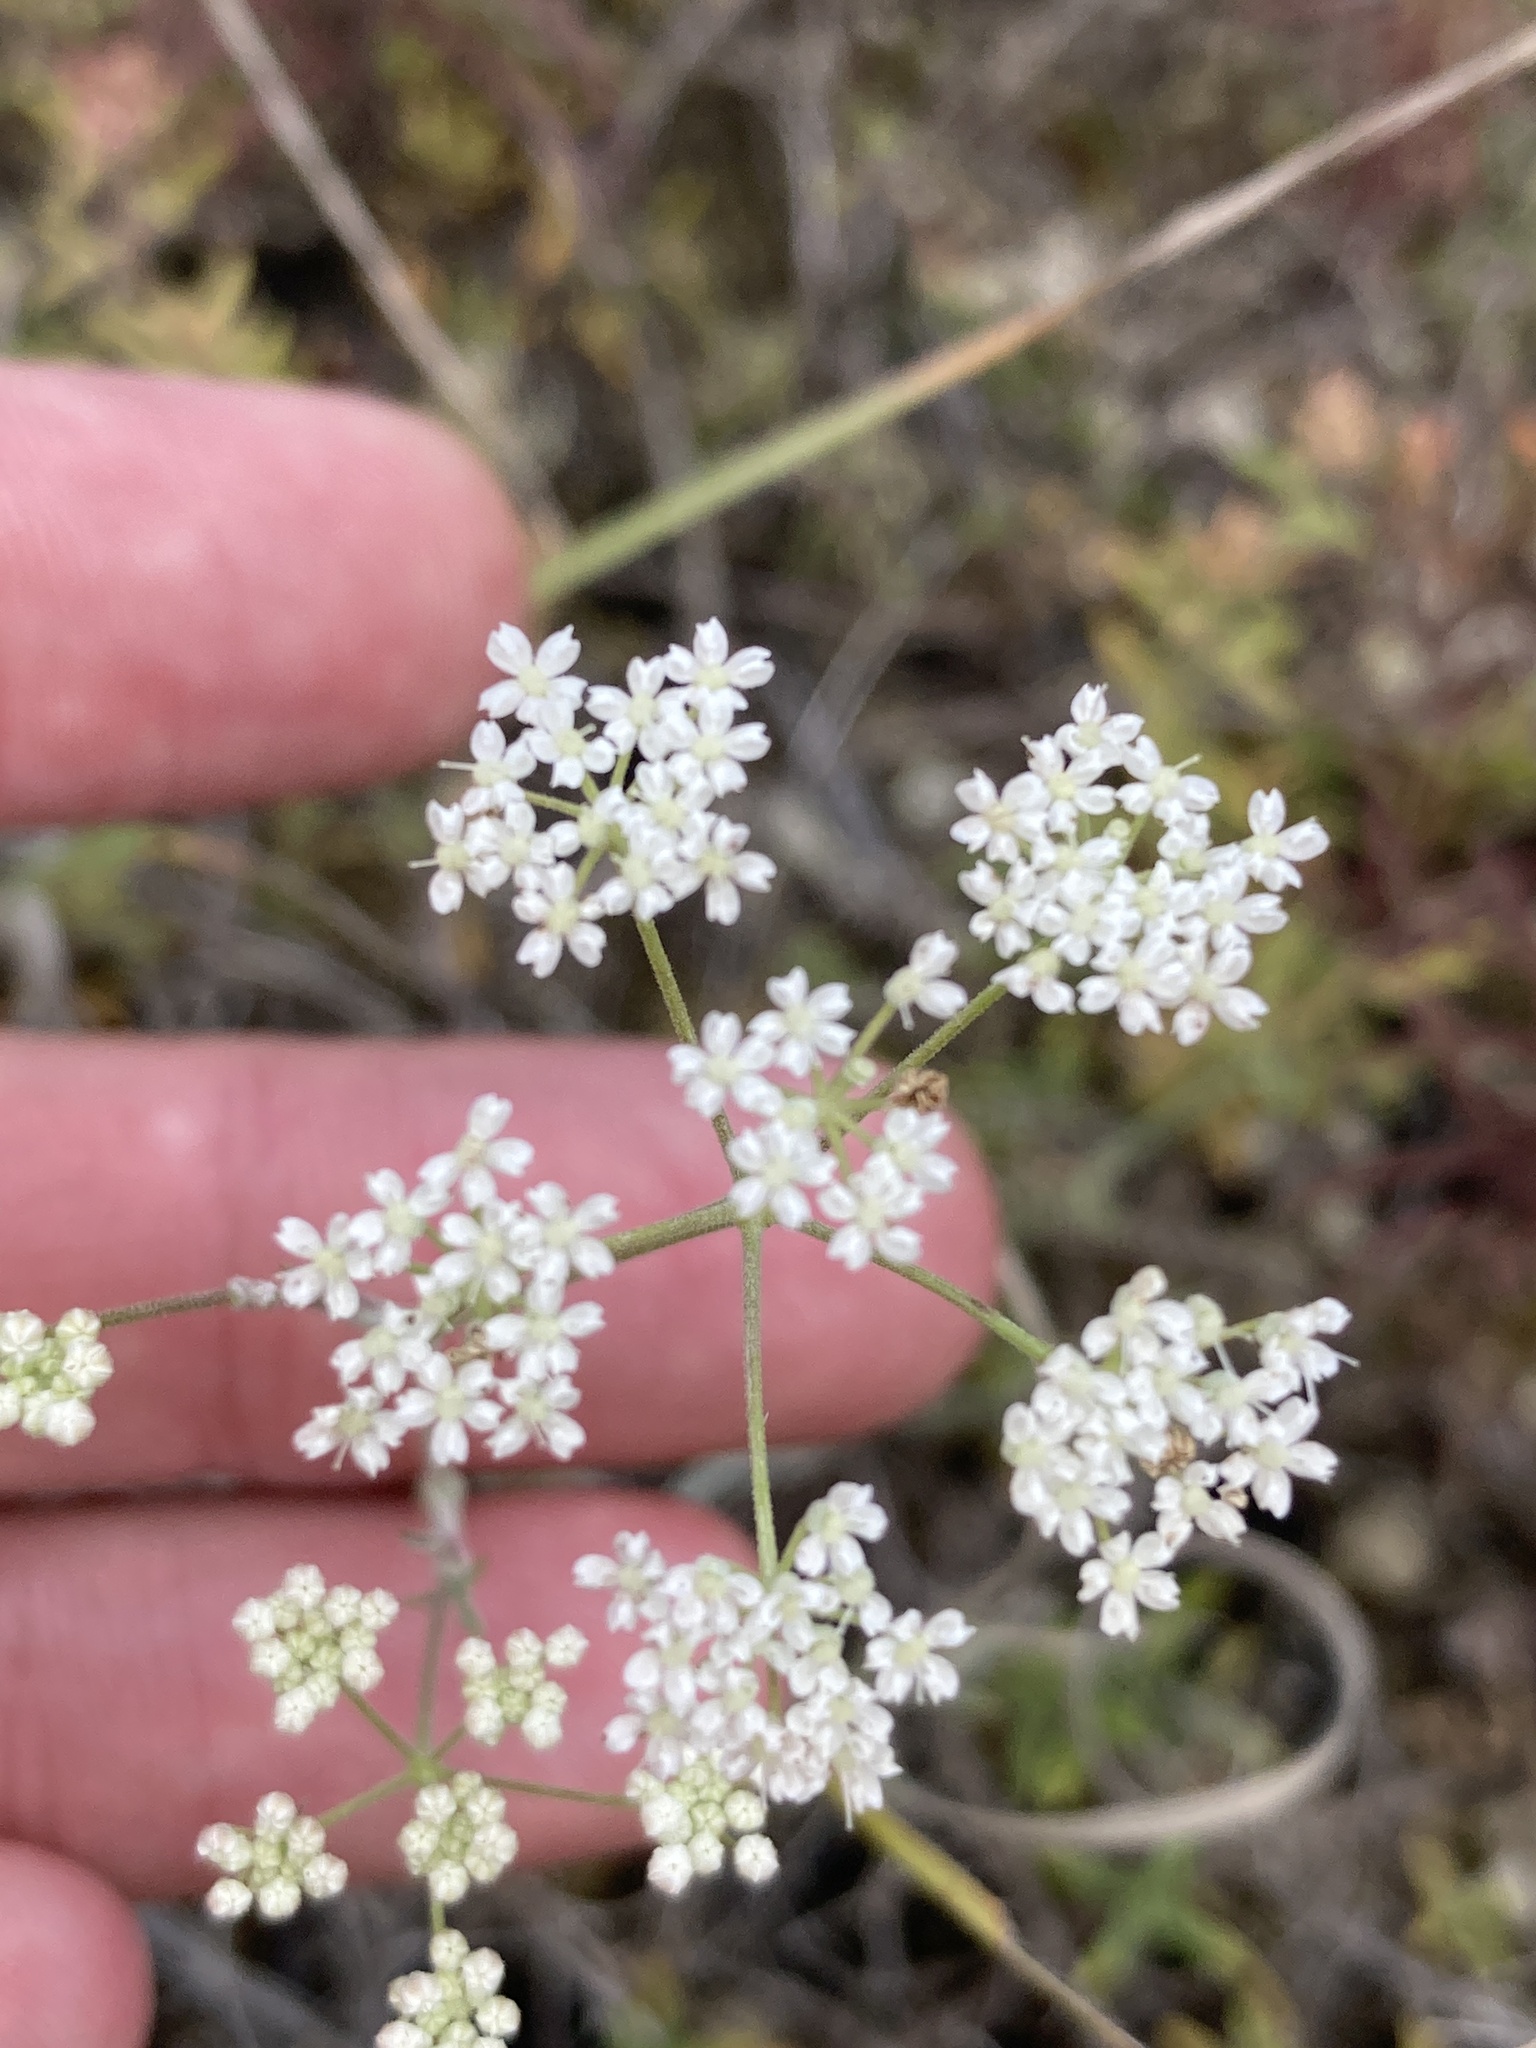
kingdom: Plantae
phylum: Tracheophyta
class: Magnoliopsida
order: Apiales
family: Apiaceae
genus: Pimpinella
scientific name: Pimpinella tragium
